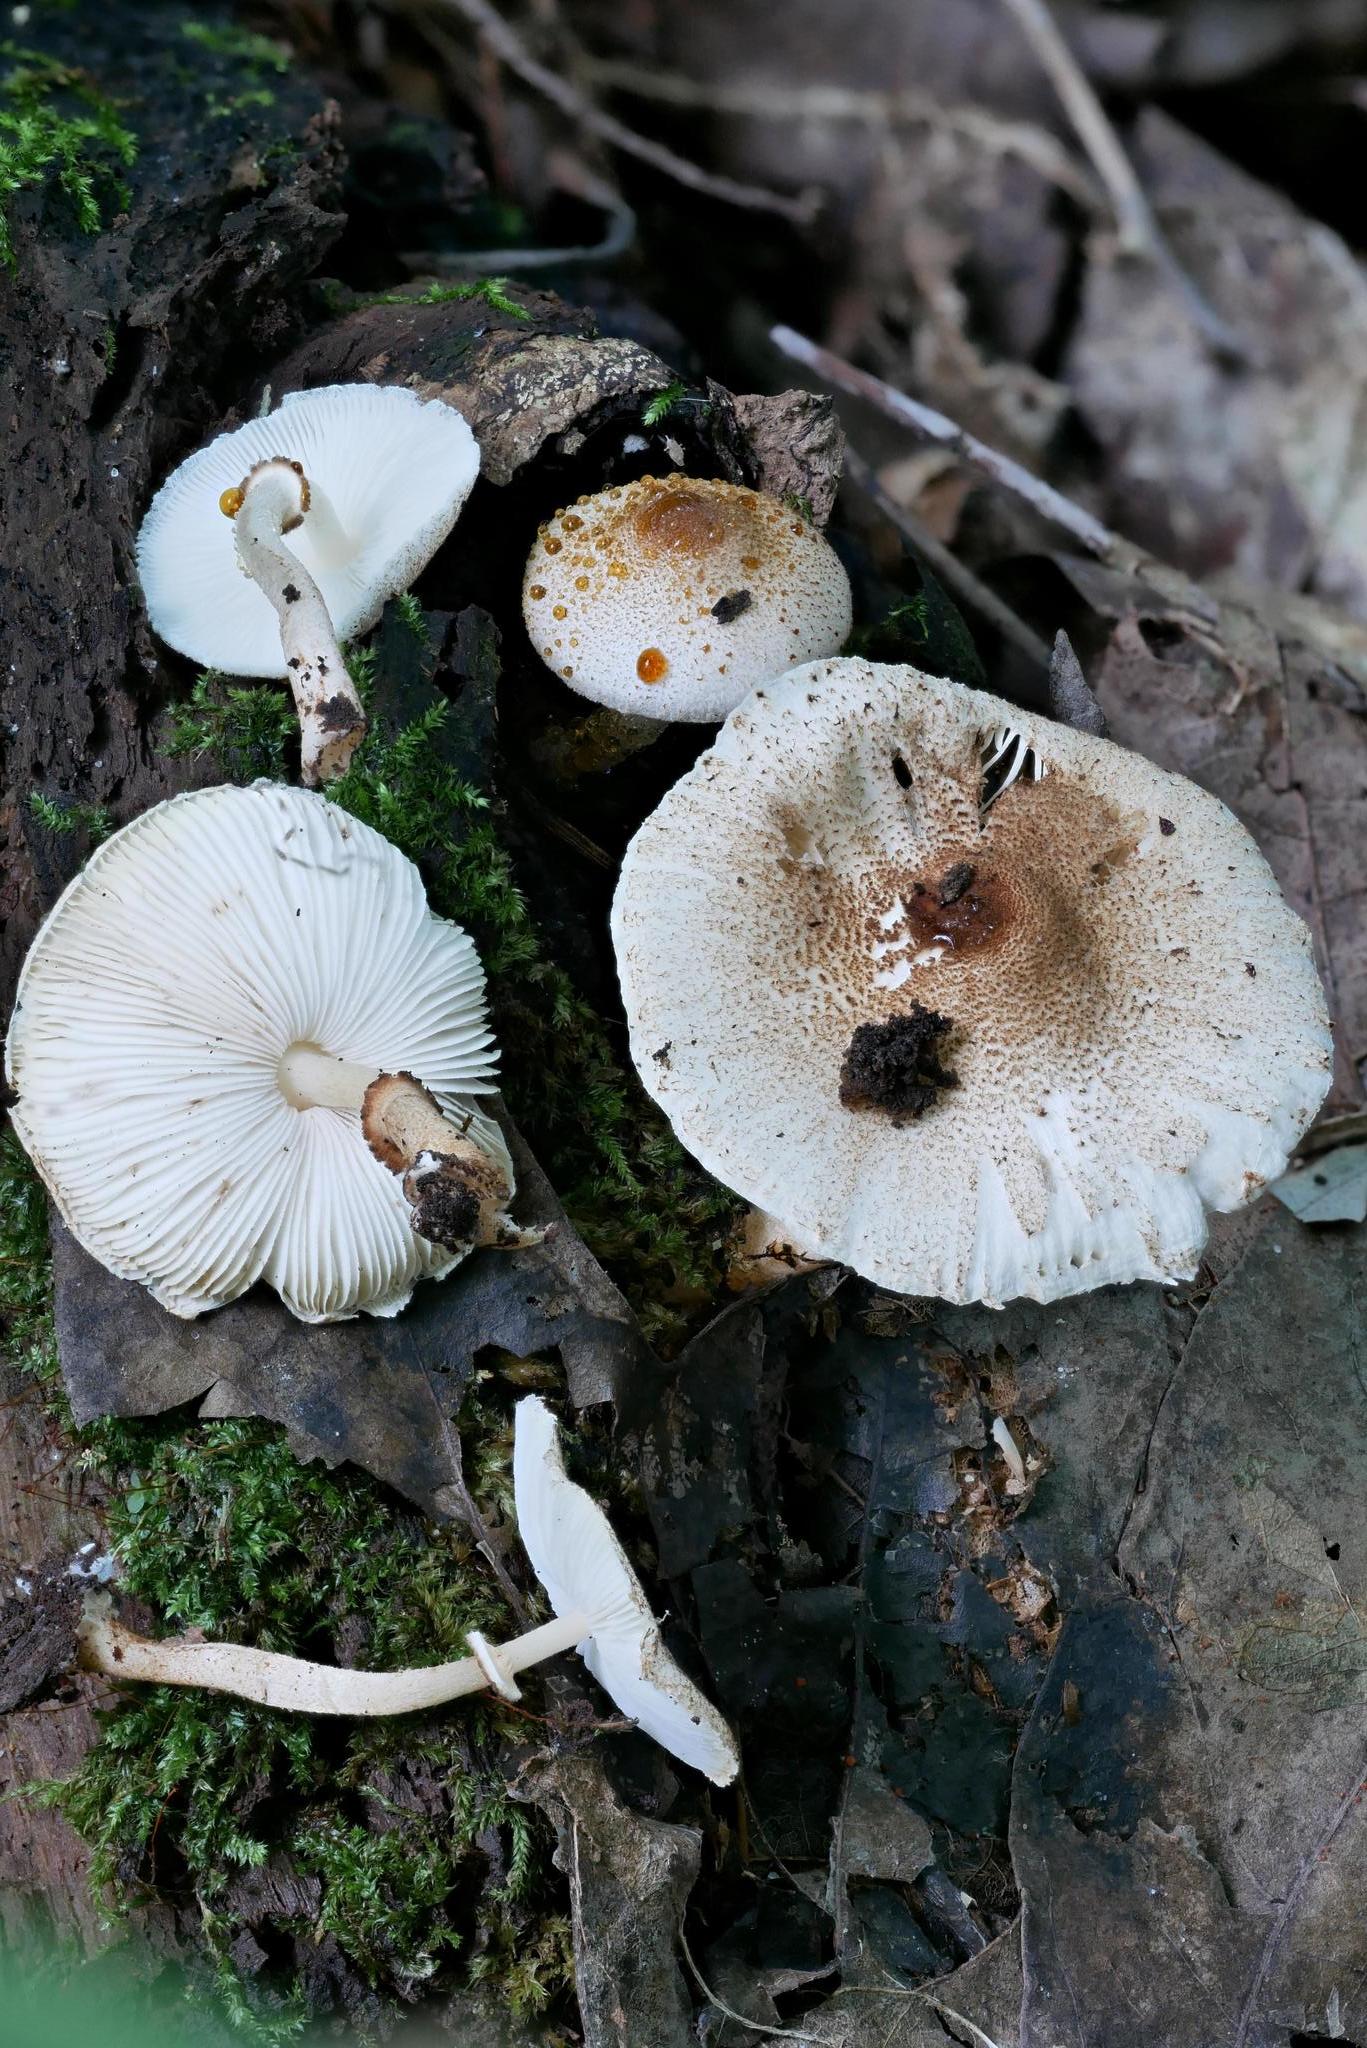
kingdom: Fungi
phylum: Basidiomycota
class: Agaricomycetes
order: Agaricales
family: Agaricaceae
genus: Leucoagaricus
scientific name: Leucoagaricus dacrytus
